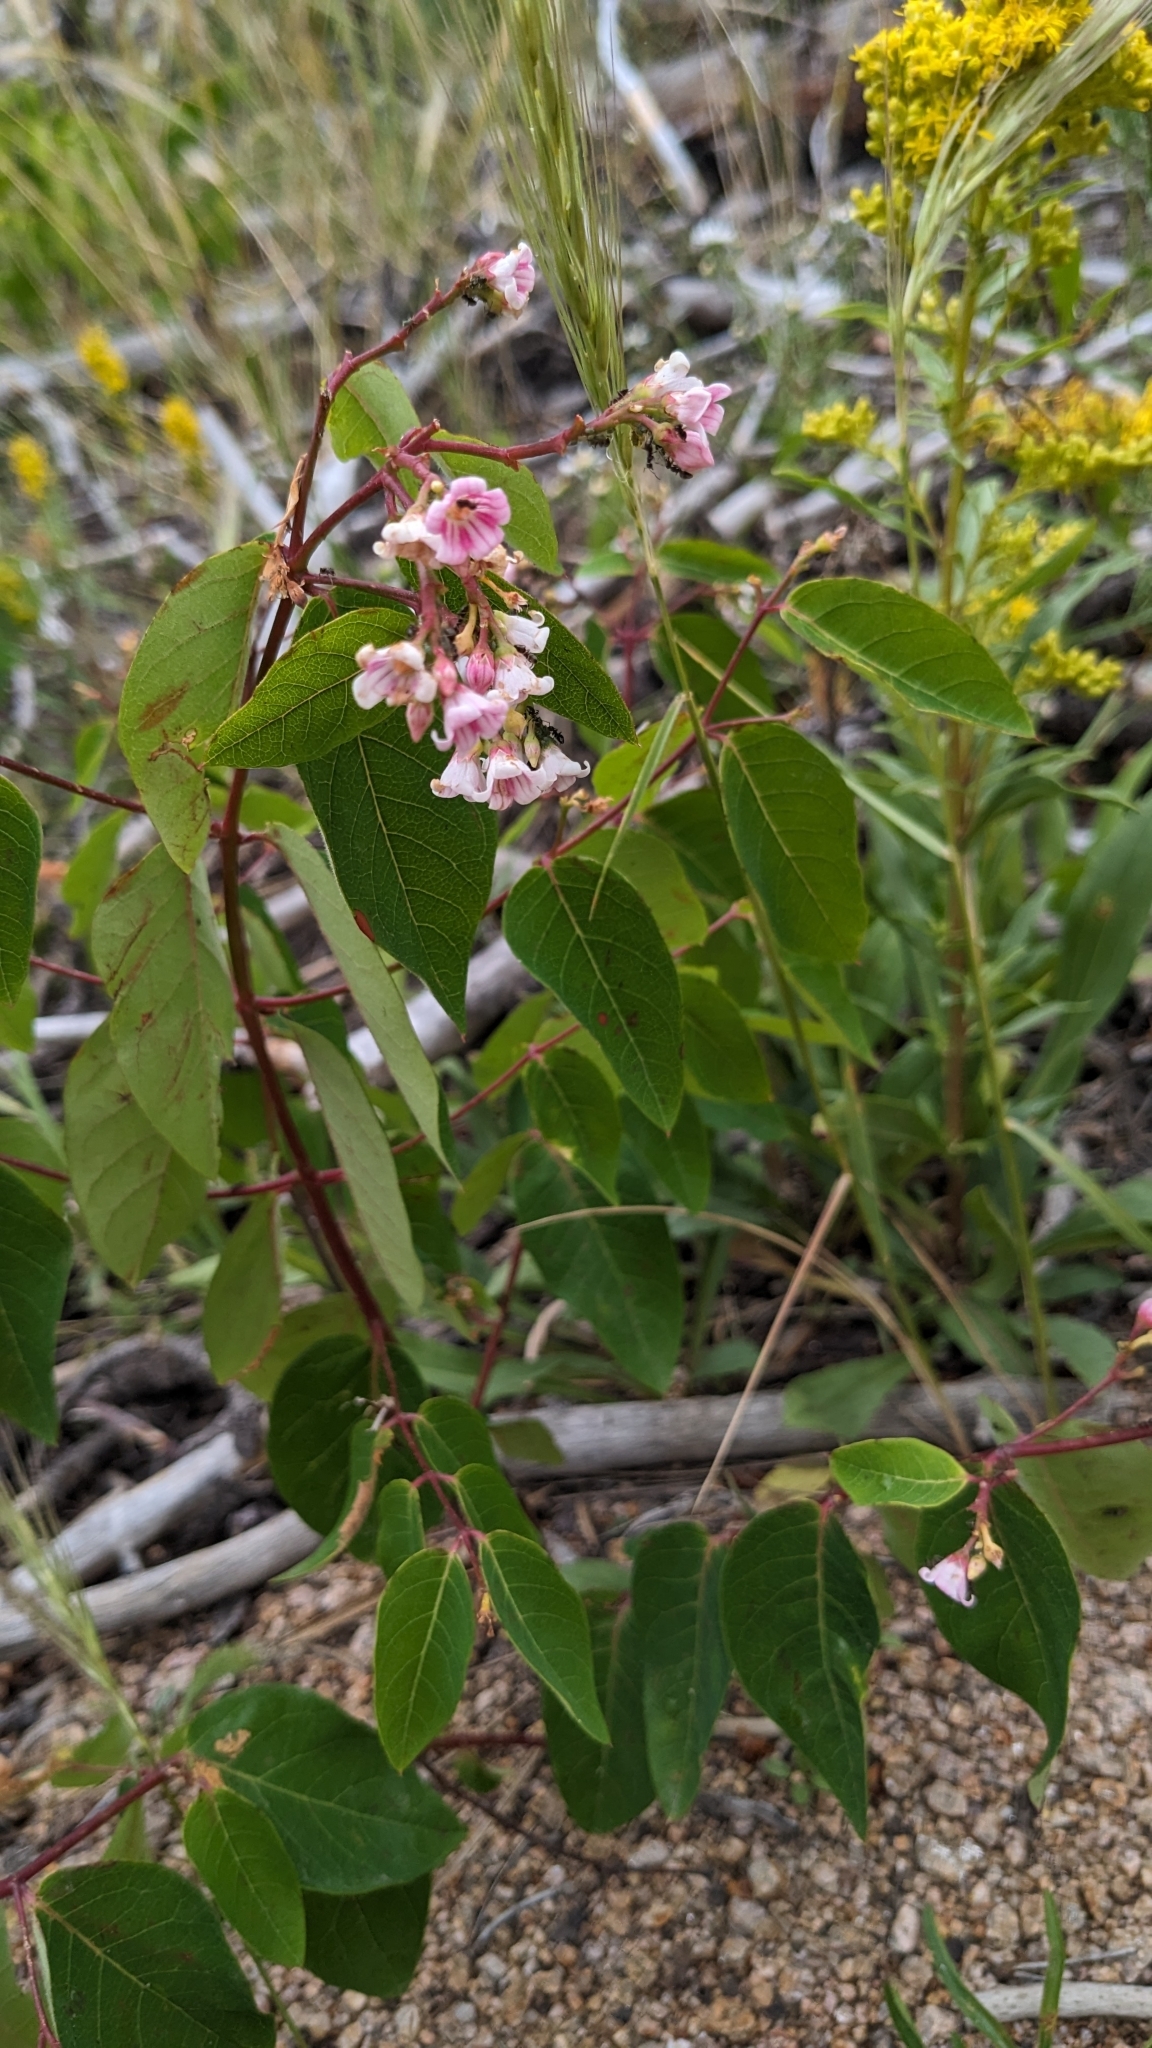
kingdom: Plantae
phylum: Tracheophyta
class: Magnoliopsida
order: Gentianales
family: Apocynaceae
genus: Apocynum
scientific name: Apocynum androsaemifolium
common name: Spreading dogbane
